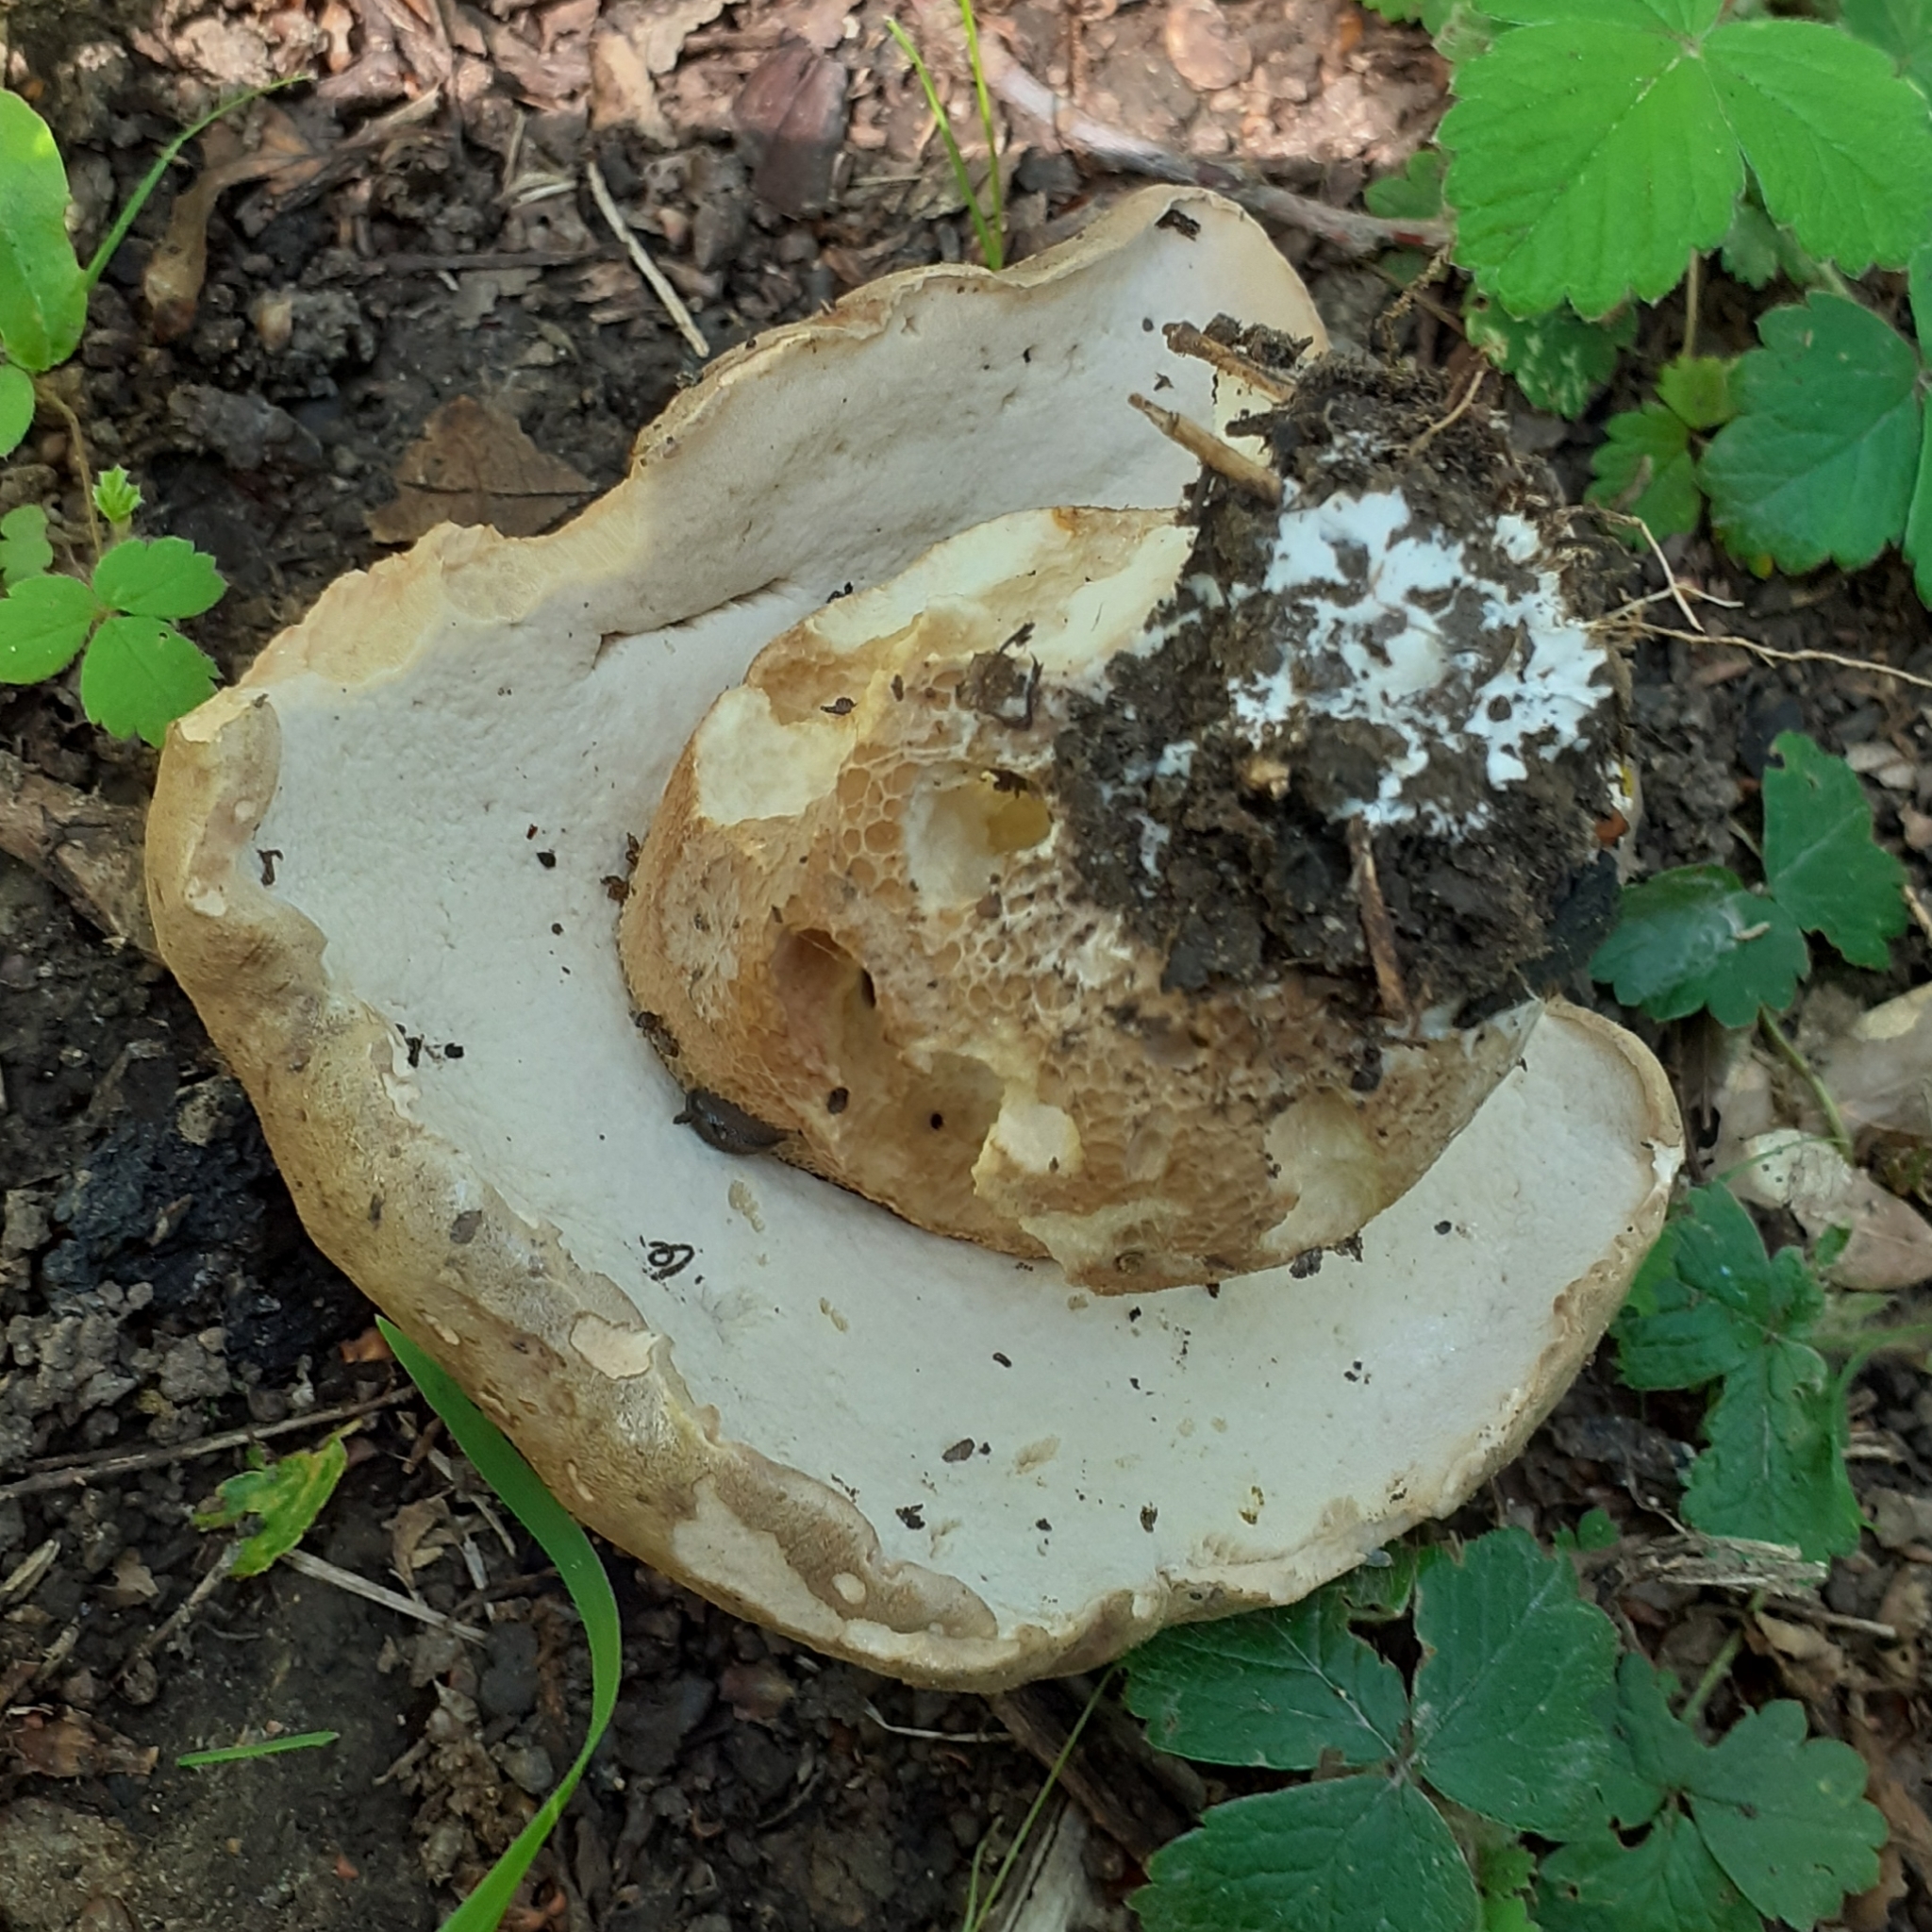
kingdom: Fungi
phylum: Basidiomycota
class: Agaricomycetes
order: Boletales
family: Boletaceae
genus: Boletus
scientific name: Boletus edulis
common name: Cep
